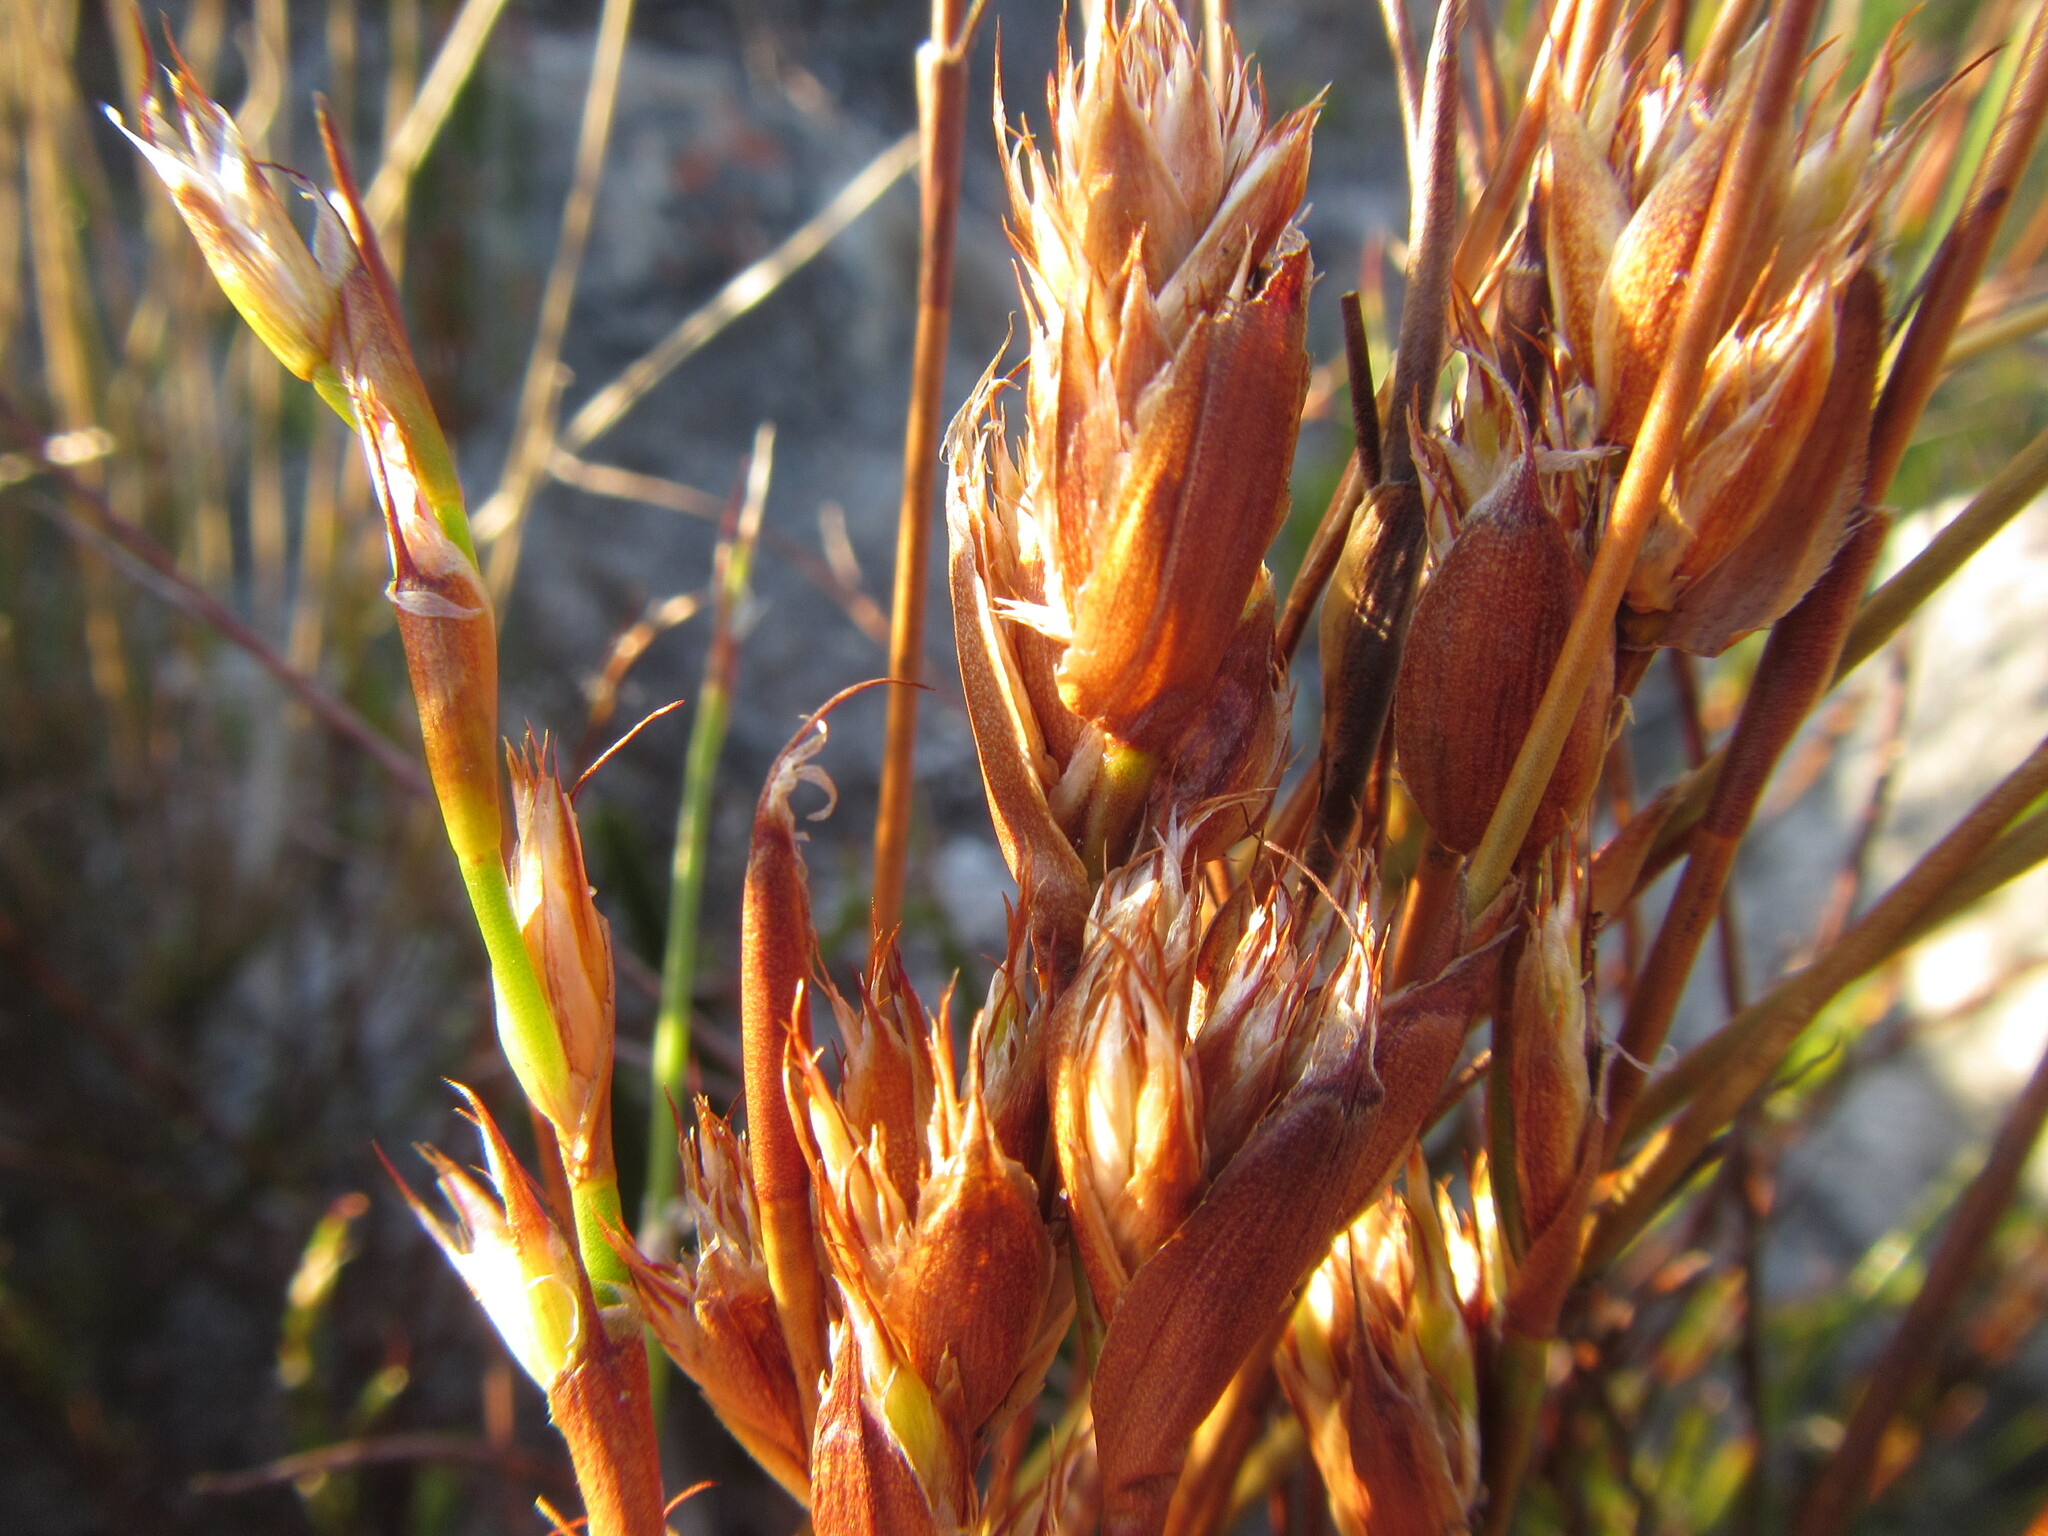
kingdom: Plantae
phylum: Tracheophyta
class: Liliopsida
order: Poales
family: Restionaceae
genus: Willdenowia
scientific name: Willdenowia glomerata
